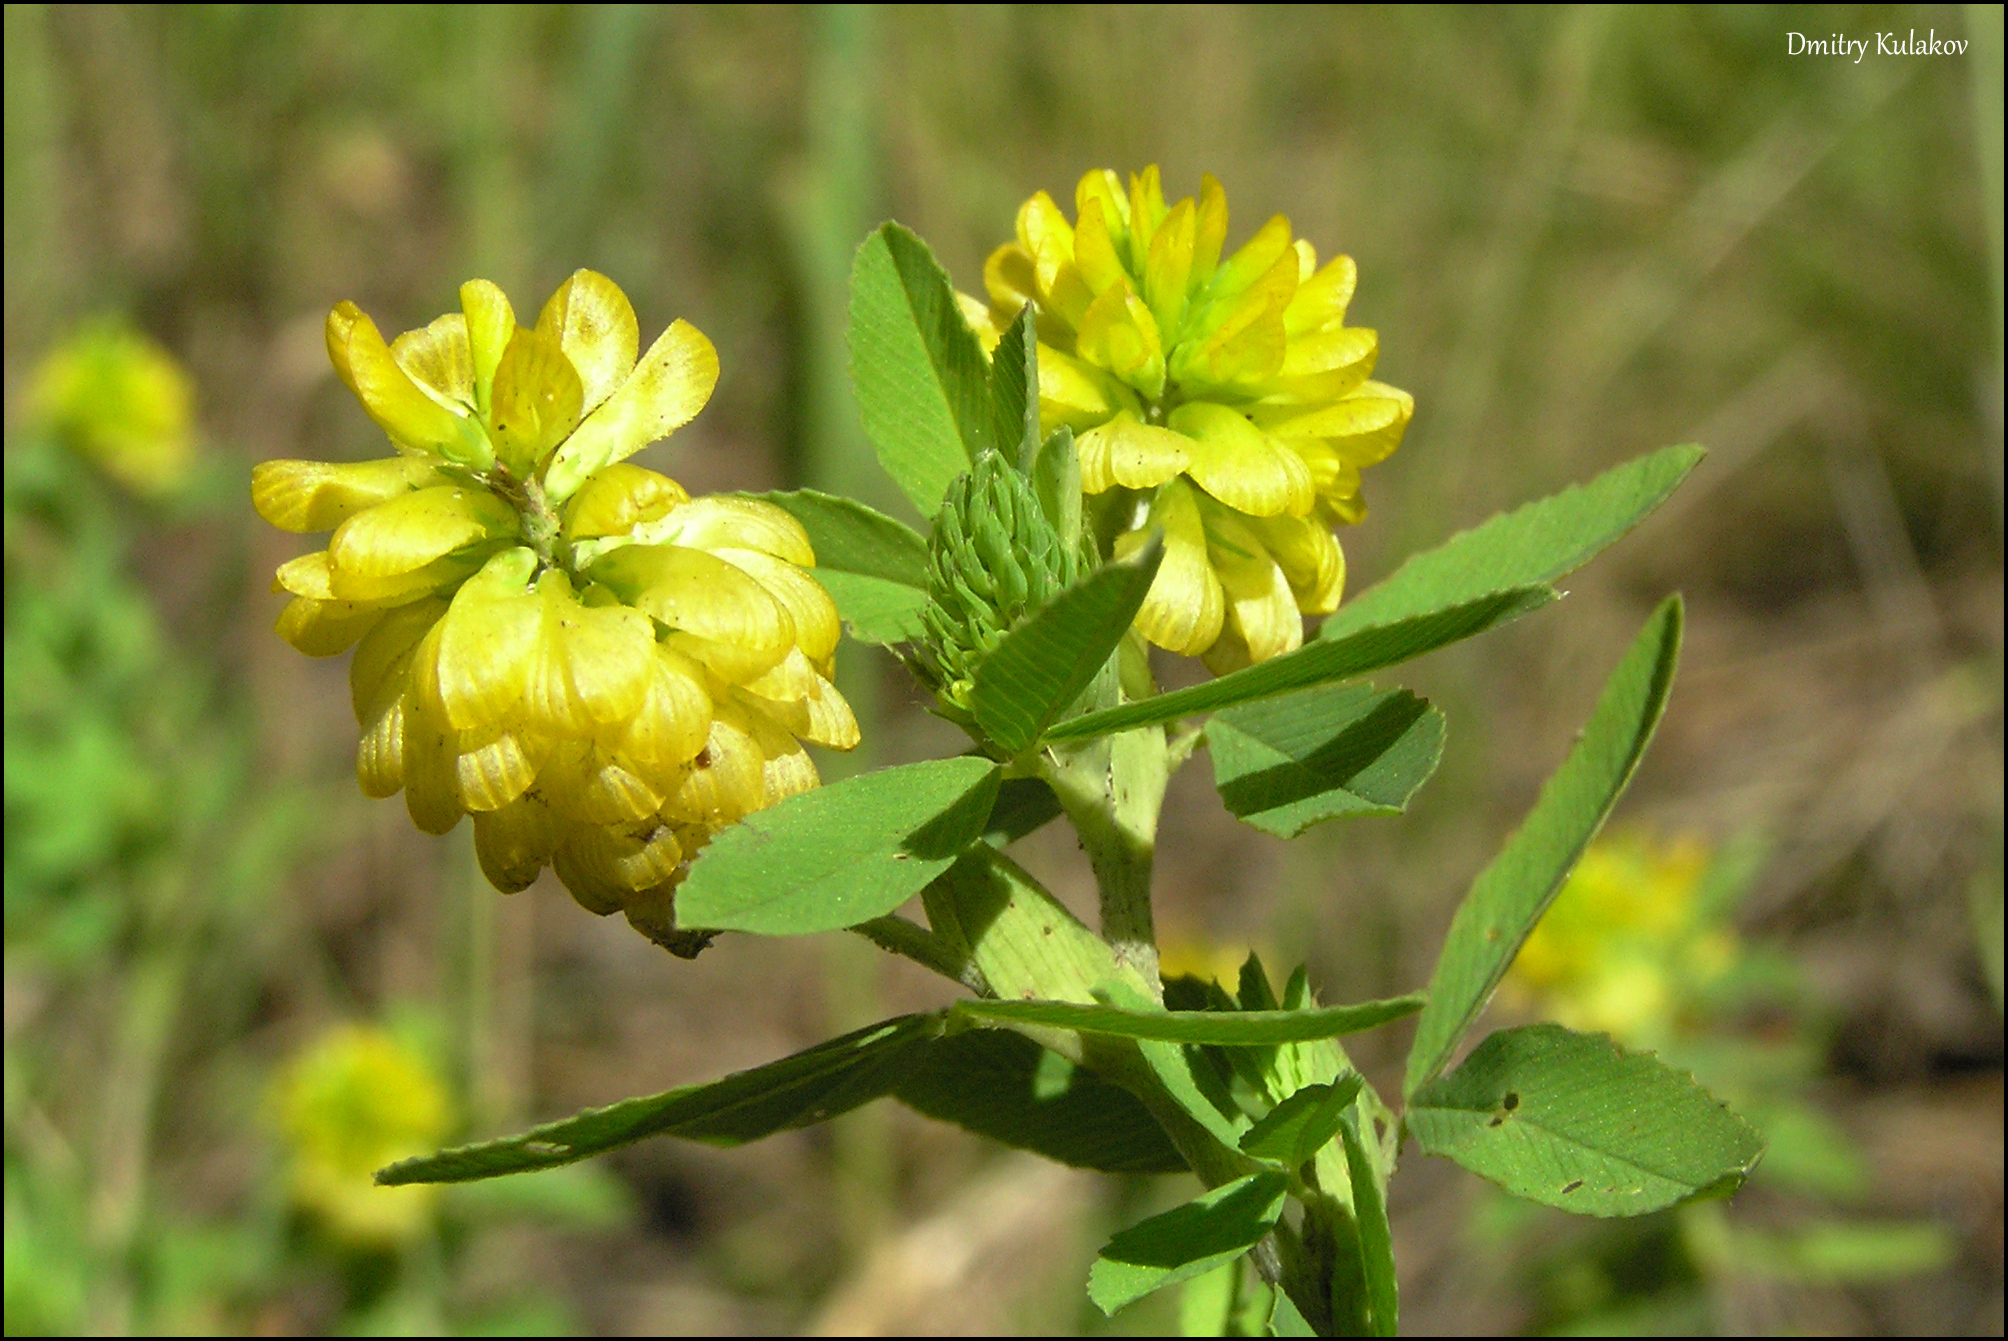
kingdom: Plantae
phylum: Tracheophyta
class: Magnoliopsida
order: Fabales
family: Fabaceae
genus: Trifolium
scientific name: Trifolium aureum
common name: Golden clover
